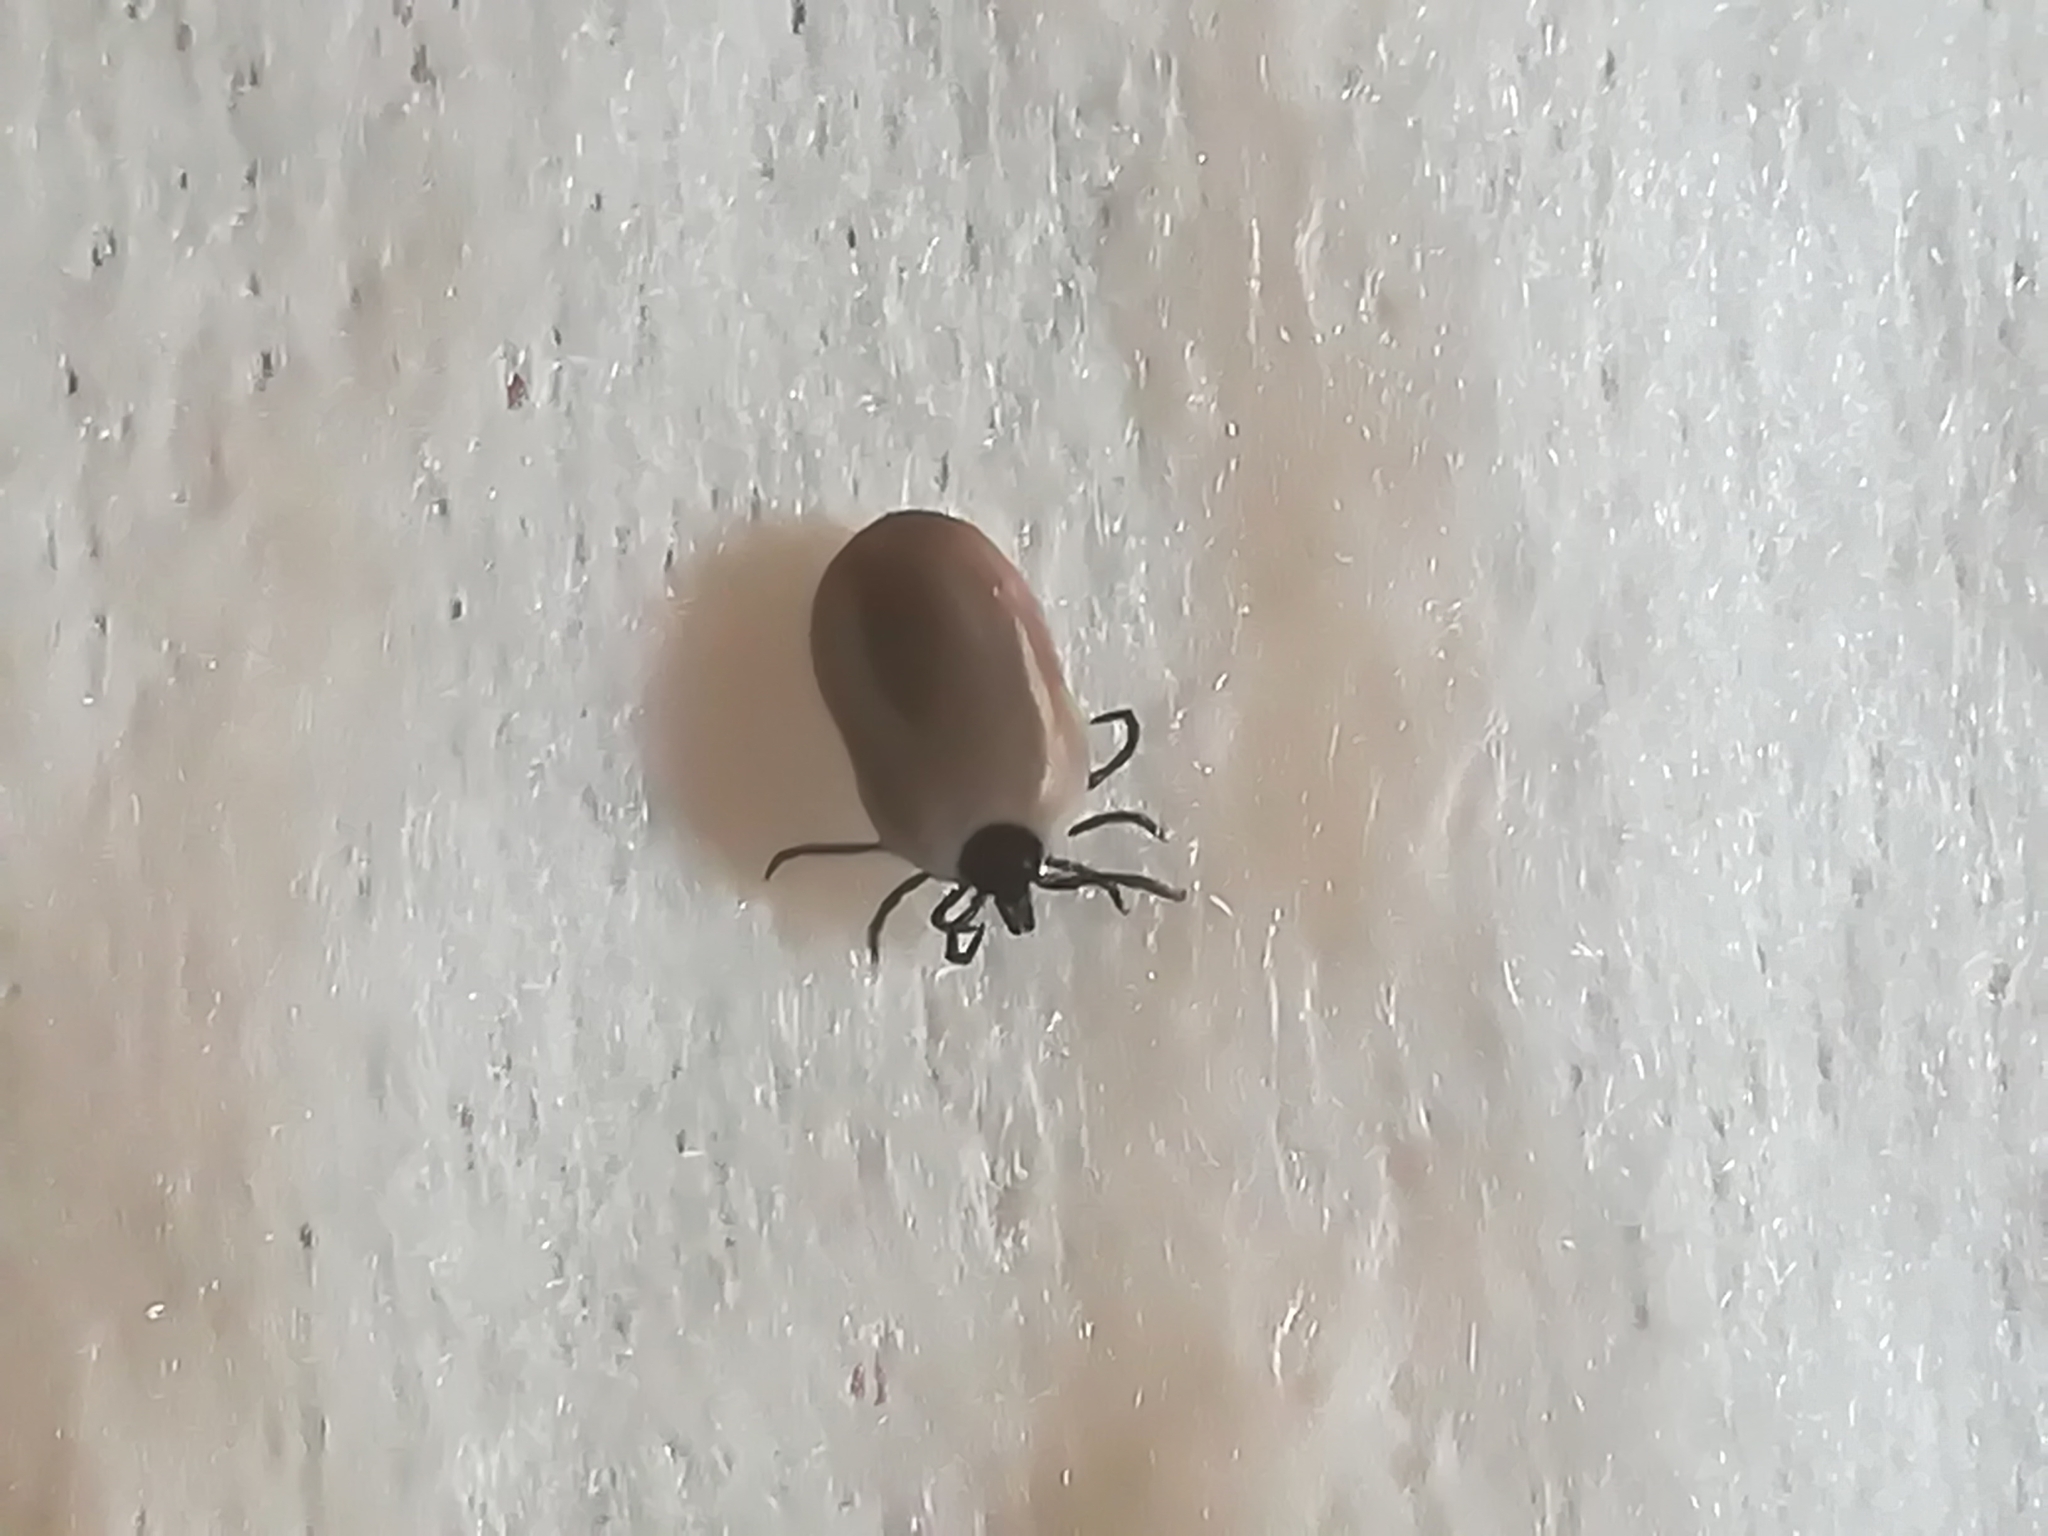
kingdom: Animalia
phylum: Arthropoda
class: Arachnida
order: Ixodida
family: Ixodidae
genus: Ixodes
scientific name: Ixodes ricinus
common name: Castor bean tick
